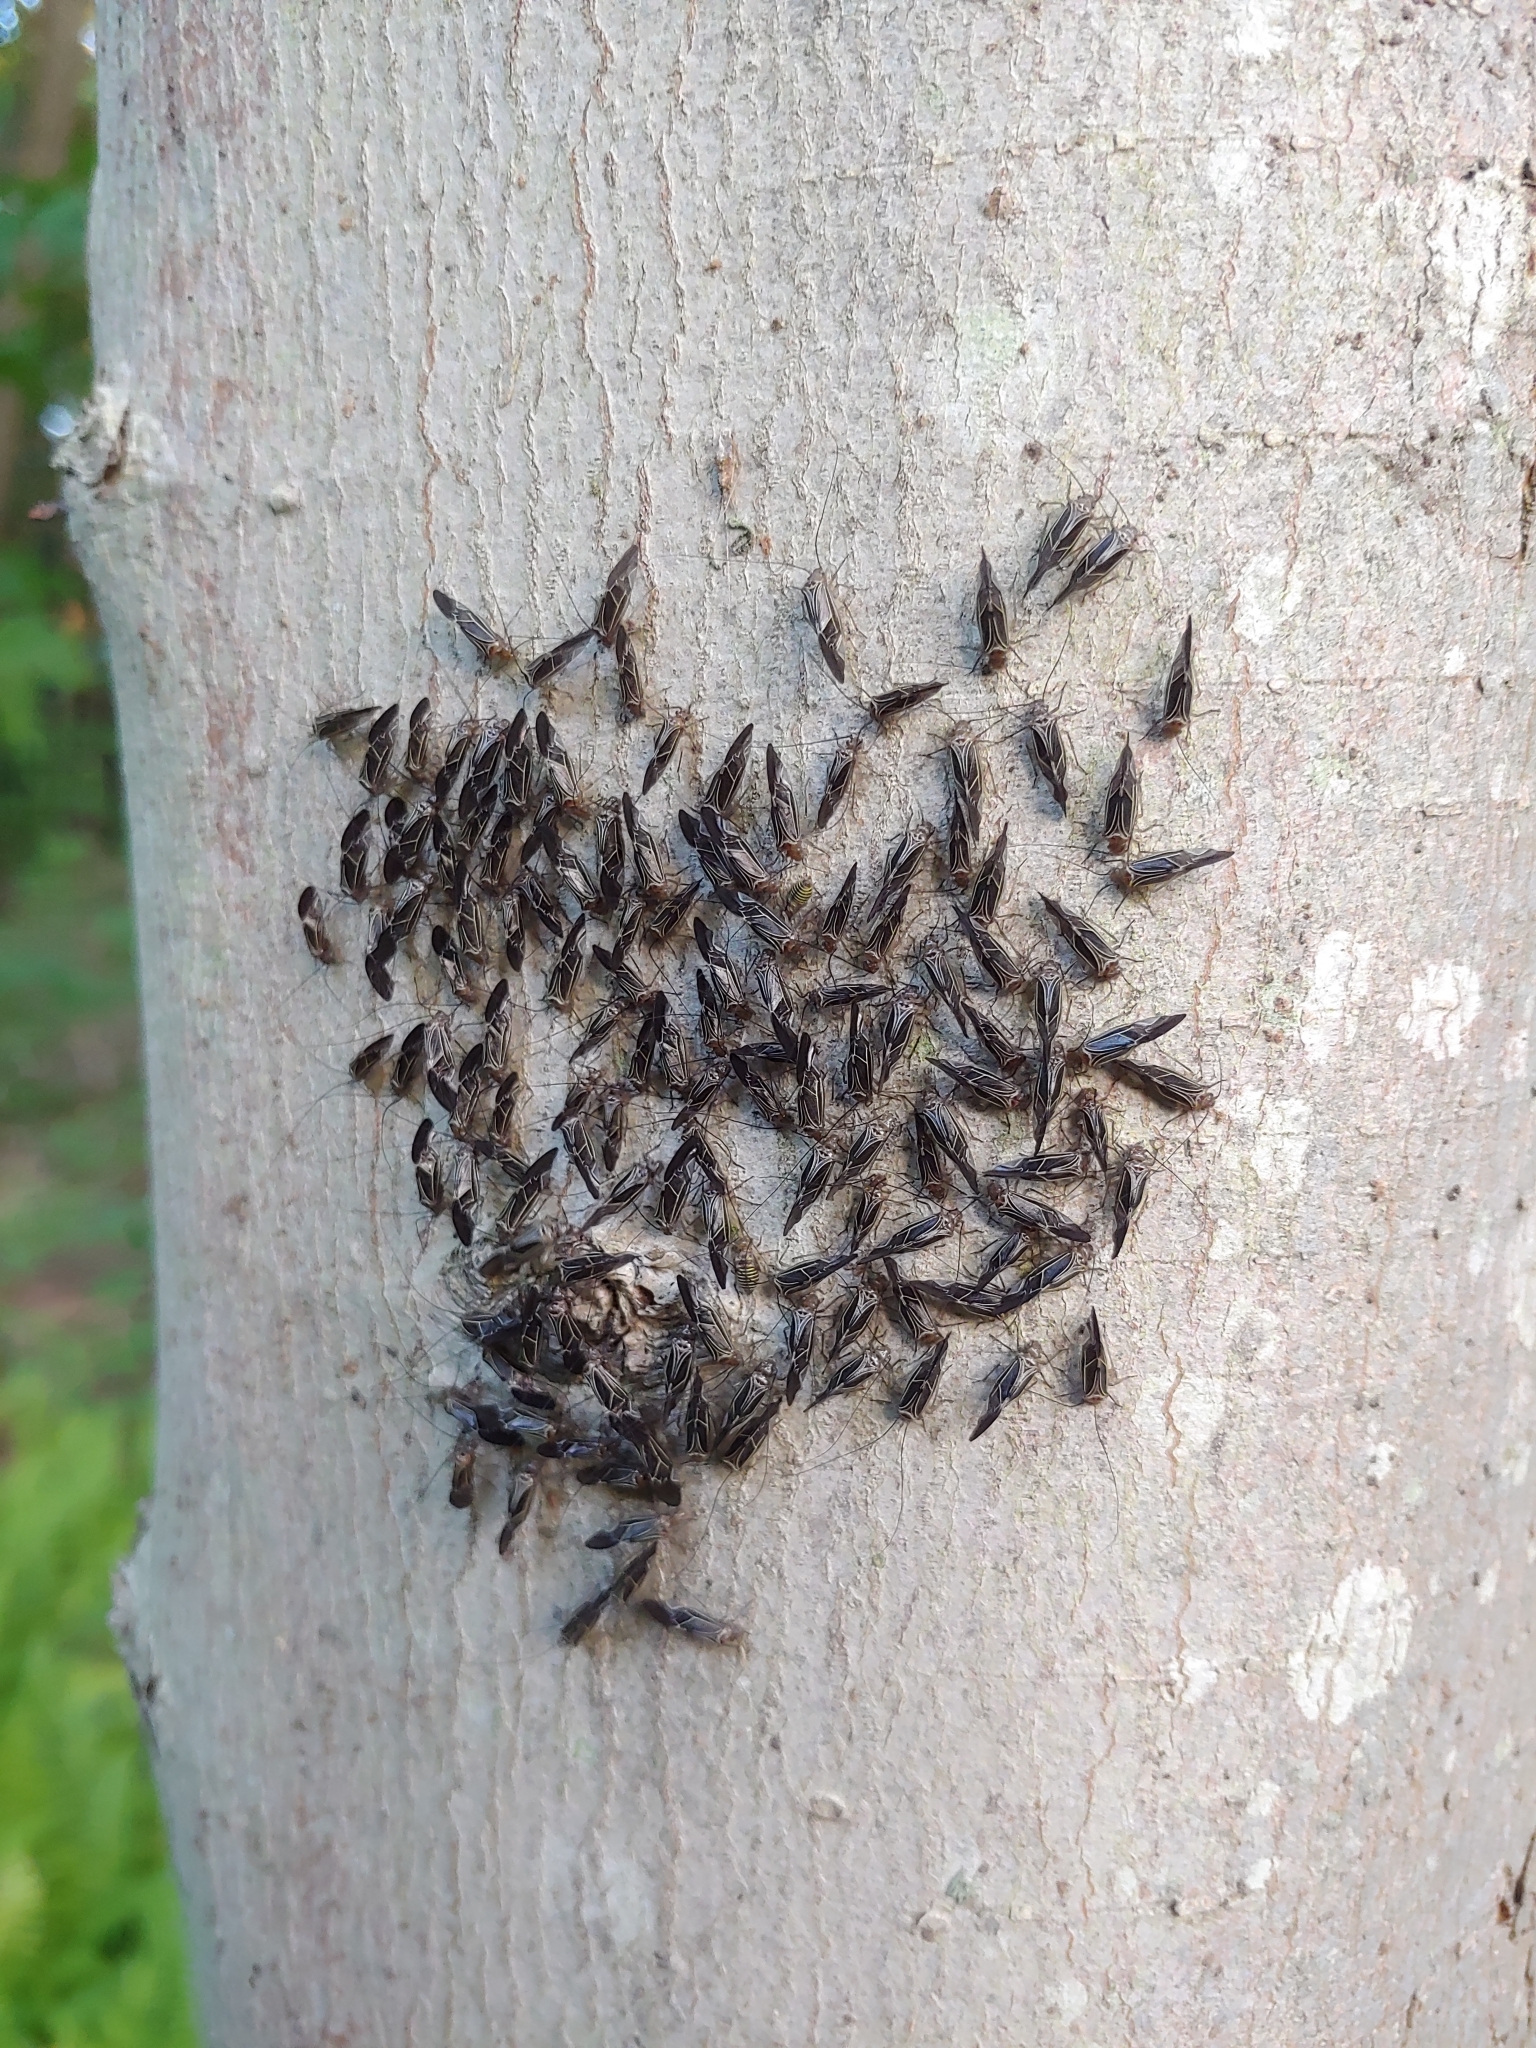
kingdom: Animalia
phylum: Arthropoda
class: Insecta
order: Psocodea
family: Psocidae
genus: Cerastipsocus
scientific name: Cerastipsocus venosus
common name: Tree cattle
